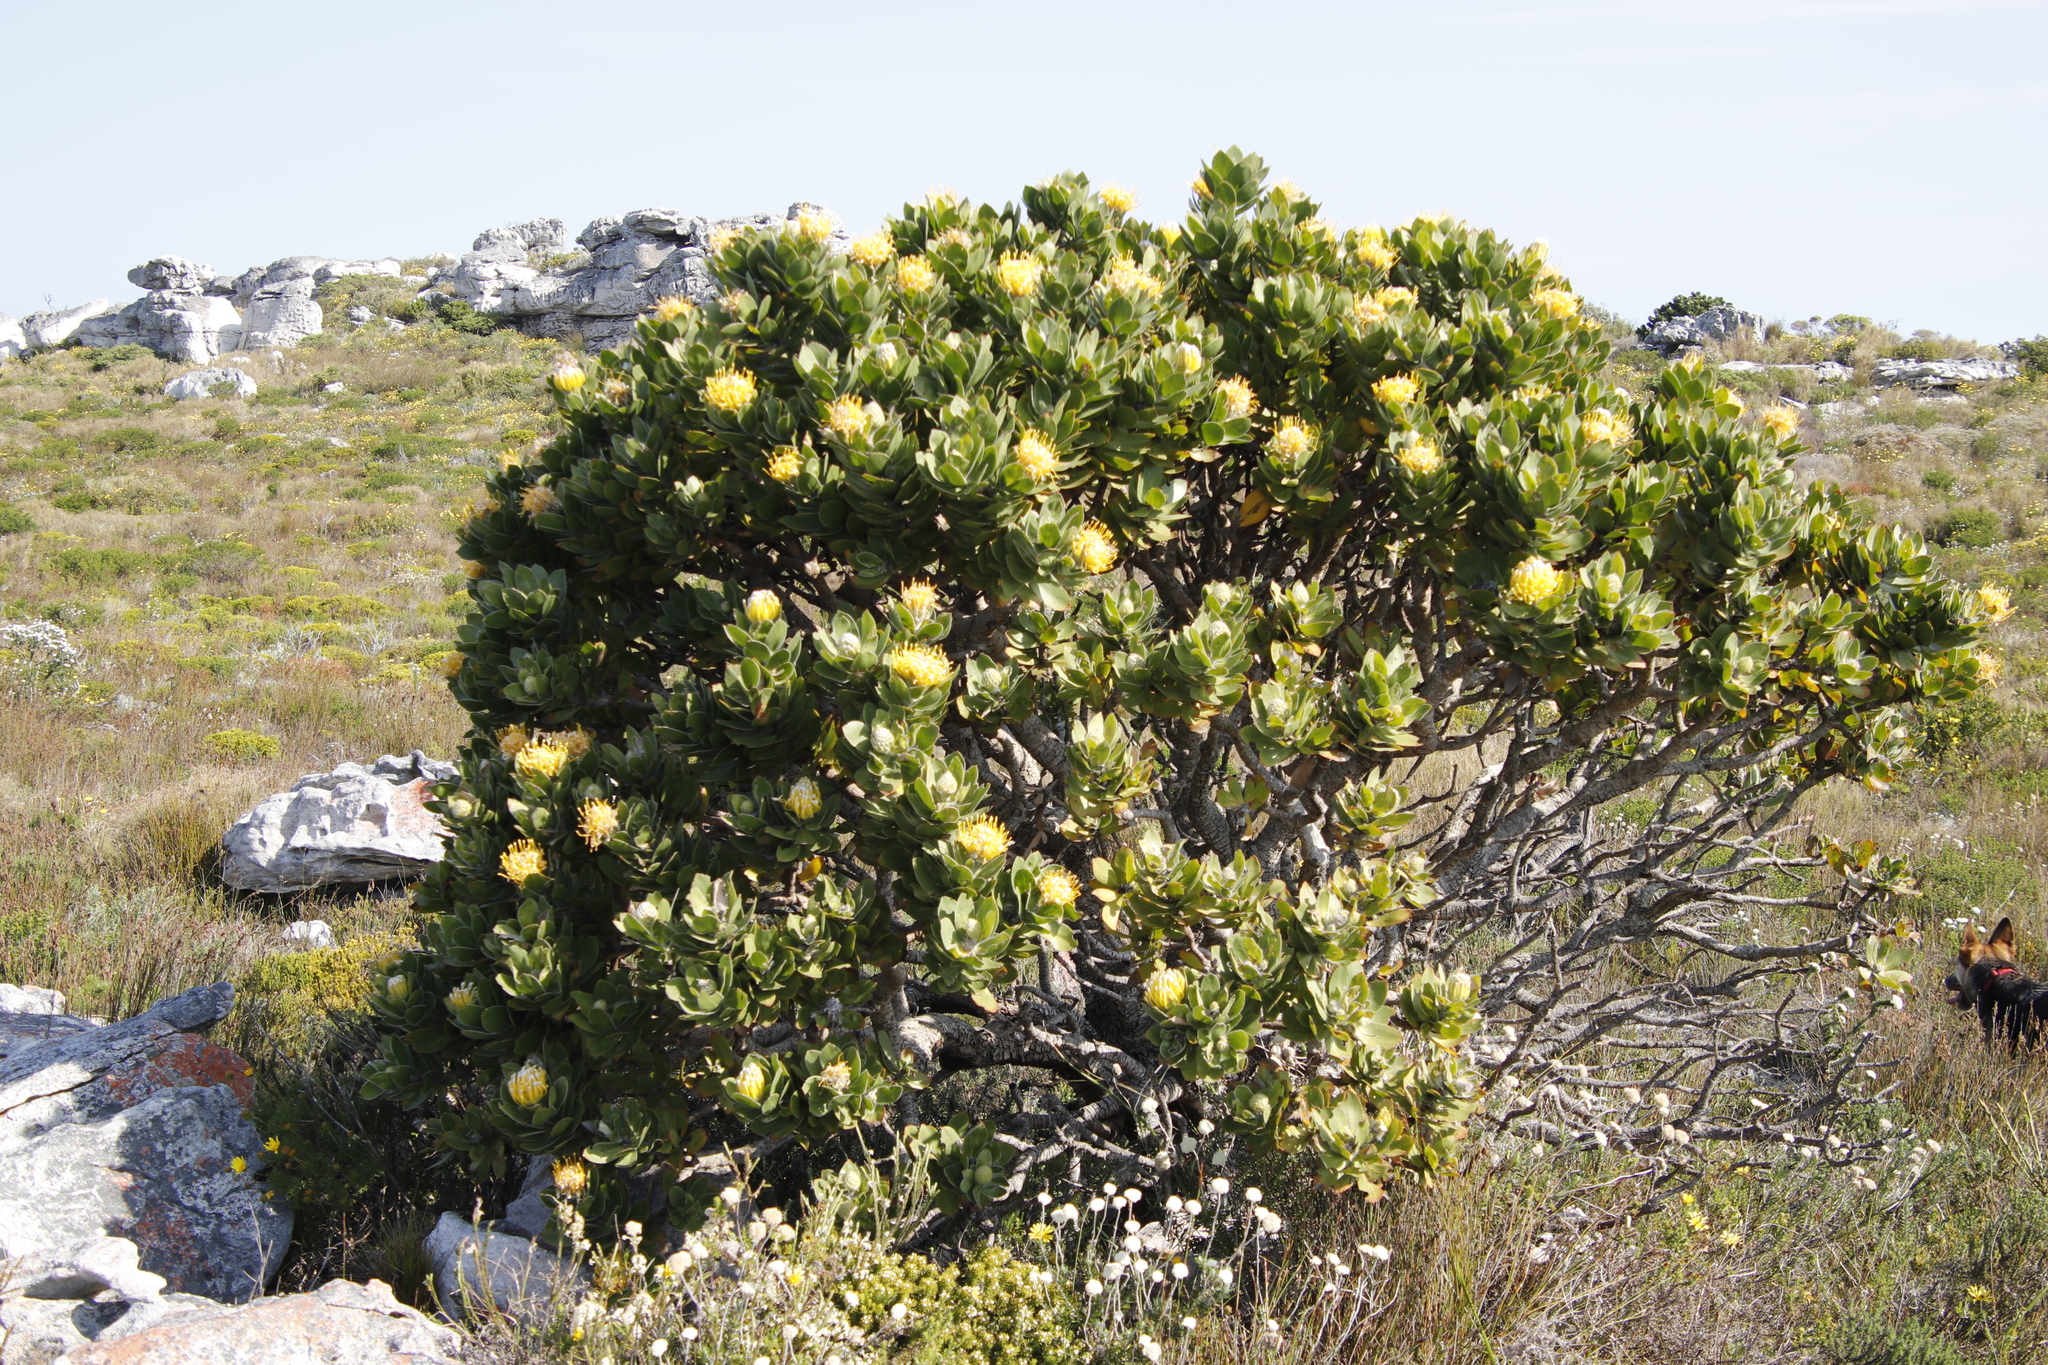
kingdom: Plantae
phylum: Tracheophyta
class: Magnoliopsida
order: Proteales
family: Proteaceae
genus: Leucospermum
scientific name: Leucospermum conocarpodendron
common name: Tree pincushion
